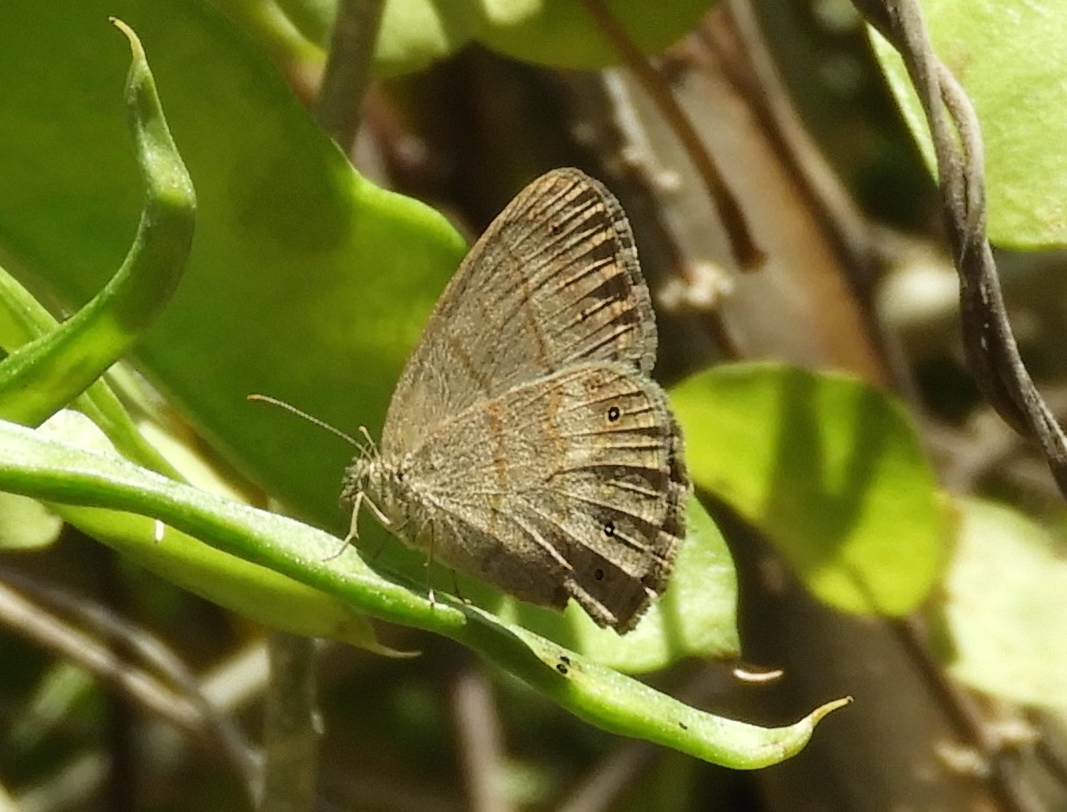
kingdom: Animalia
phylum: Arthropoda
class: Insecta
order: Lepidoptera
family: Nymphalidae
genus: Hermeuptychia
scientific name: Hermeuptychia hermes
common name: Hermes satyr
